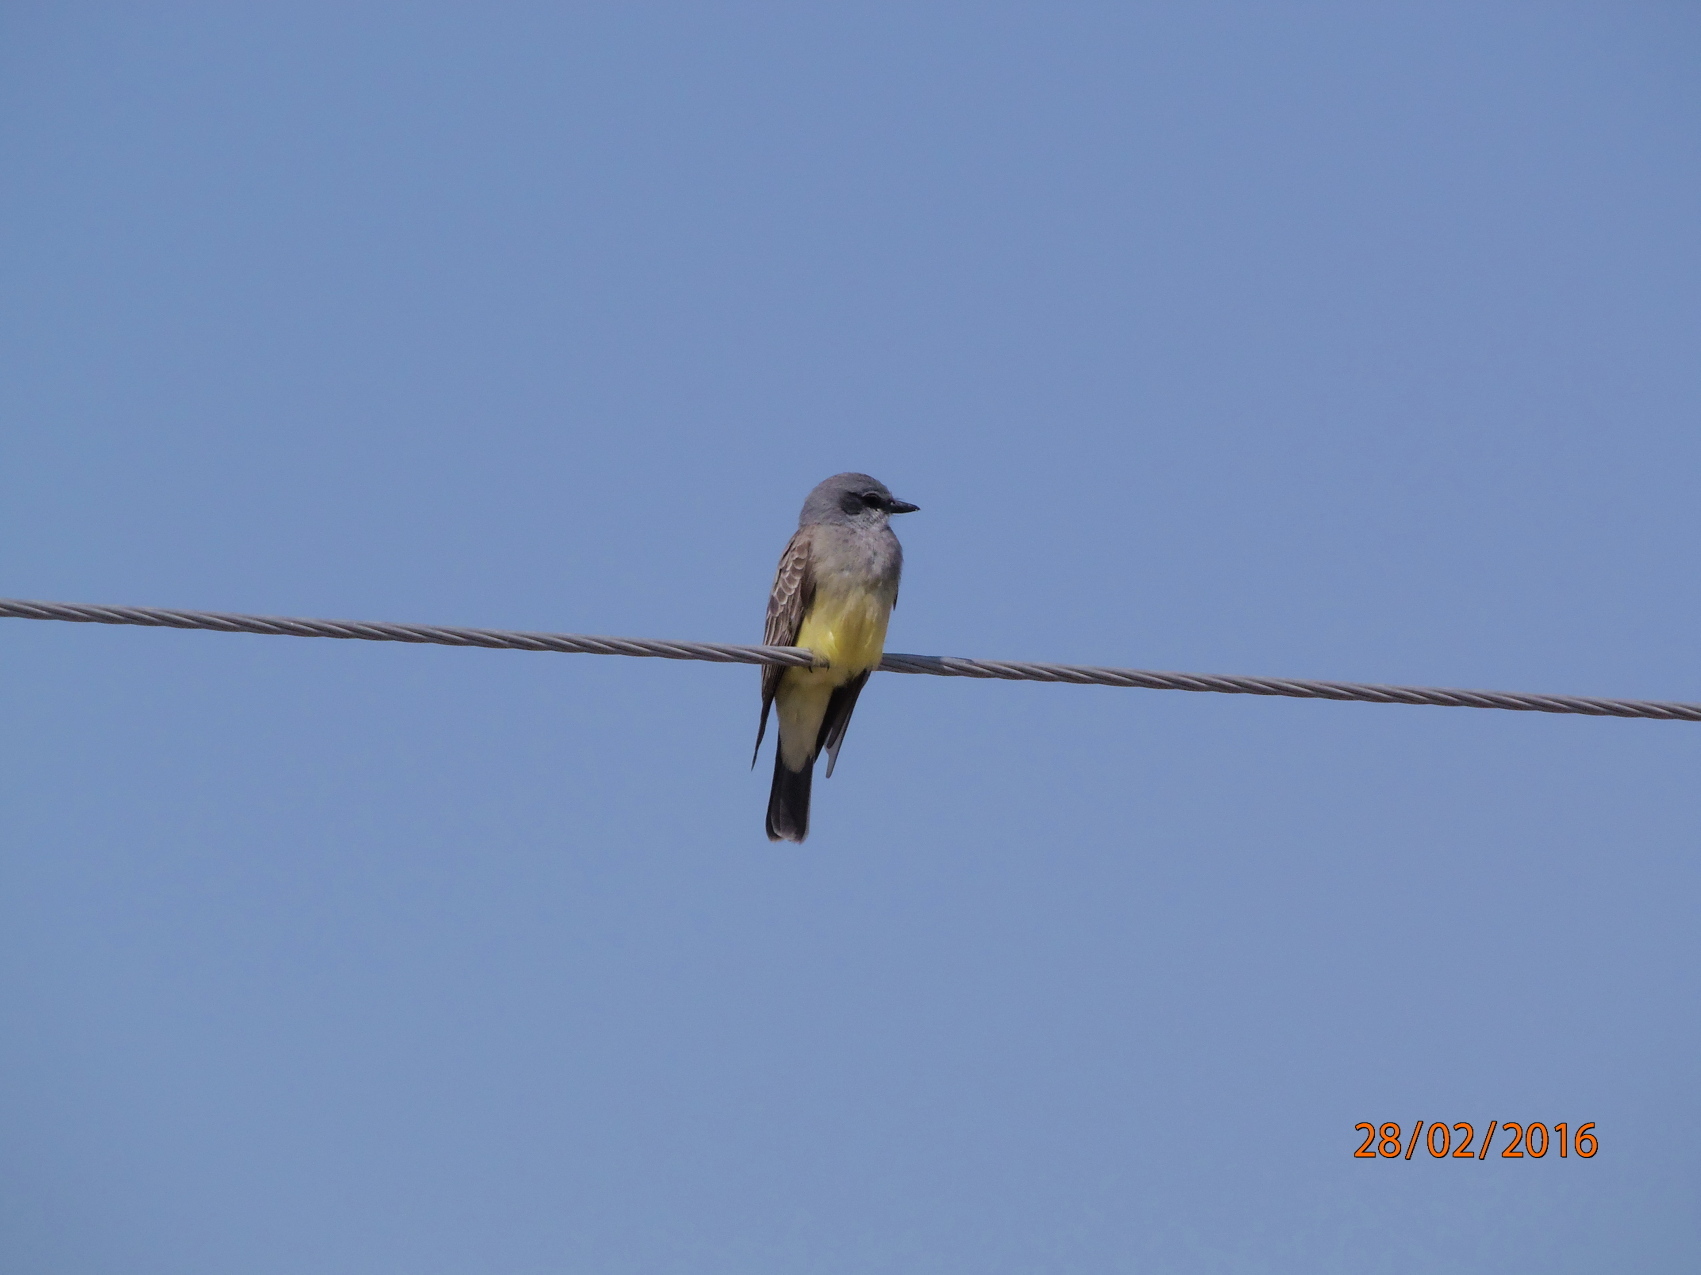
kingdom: Animalia
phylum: Chordata
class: Aves
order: Passeriformes
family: Tyrannidae
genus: Tyrannus
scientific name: Tyrannus vociferans
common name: Cassin's kingbird
